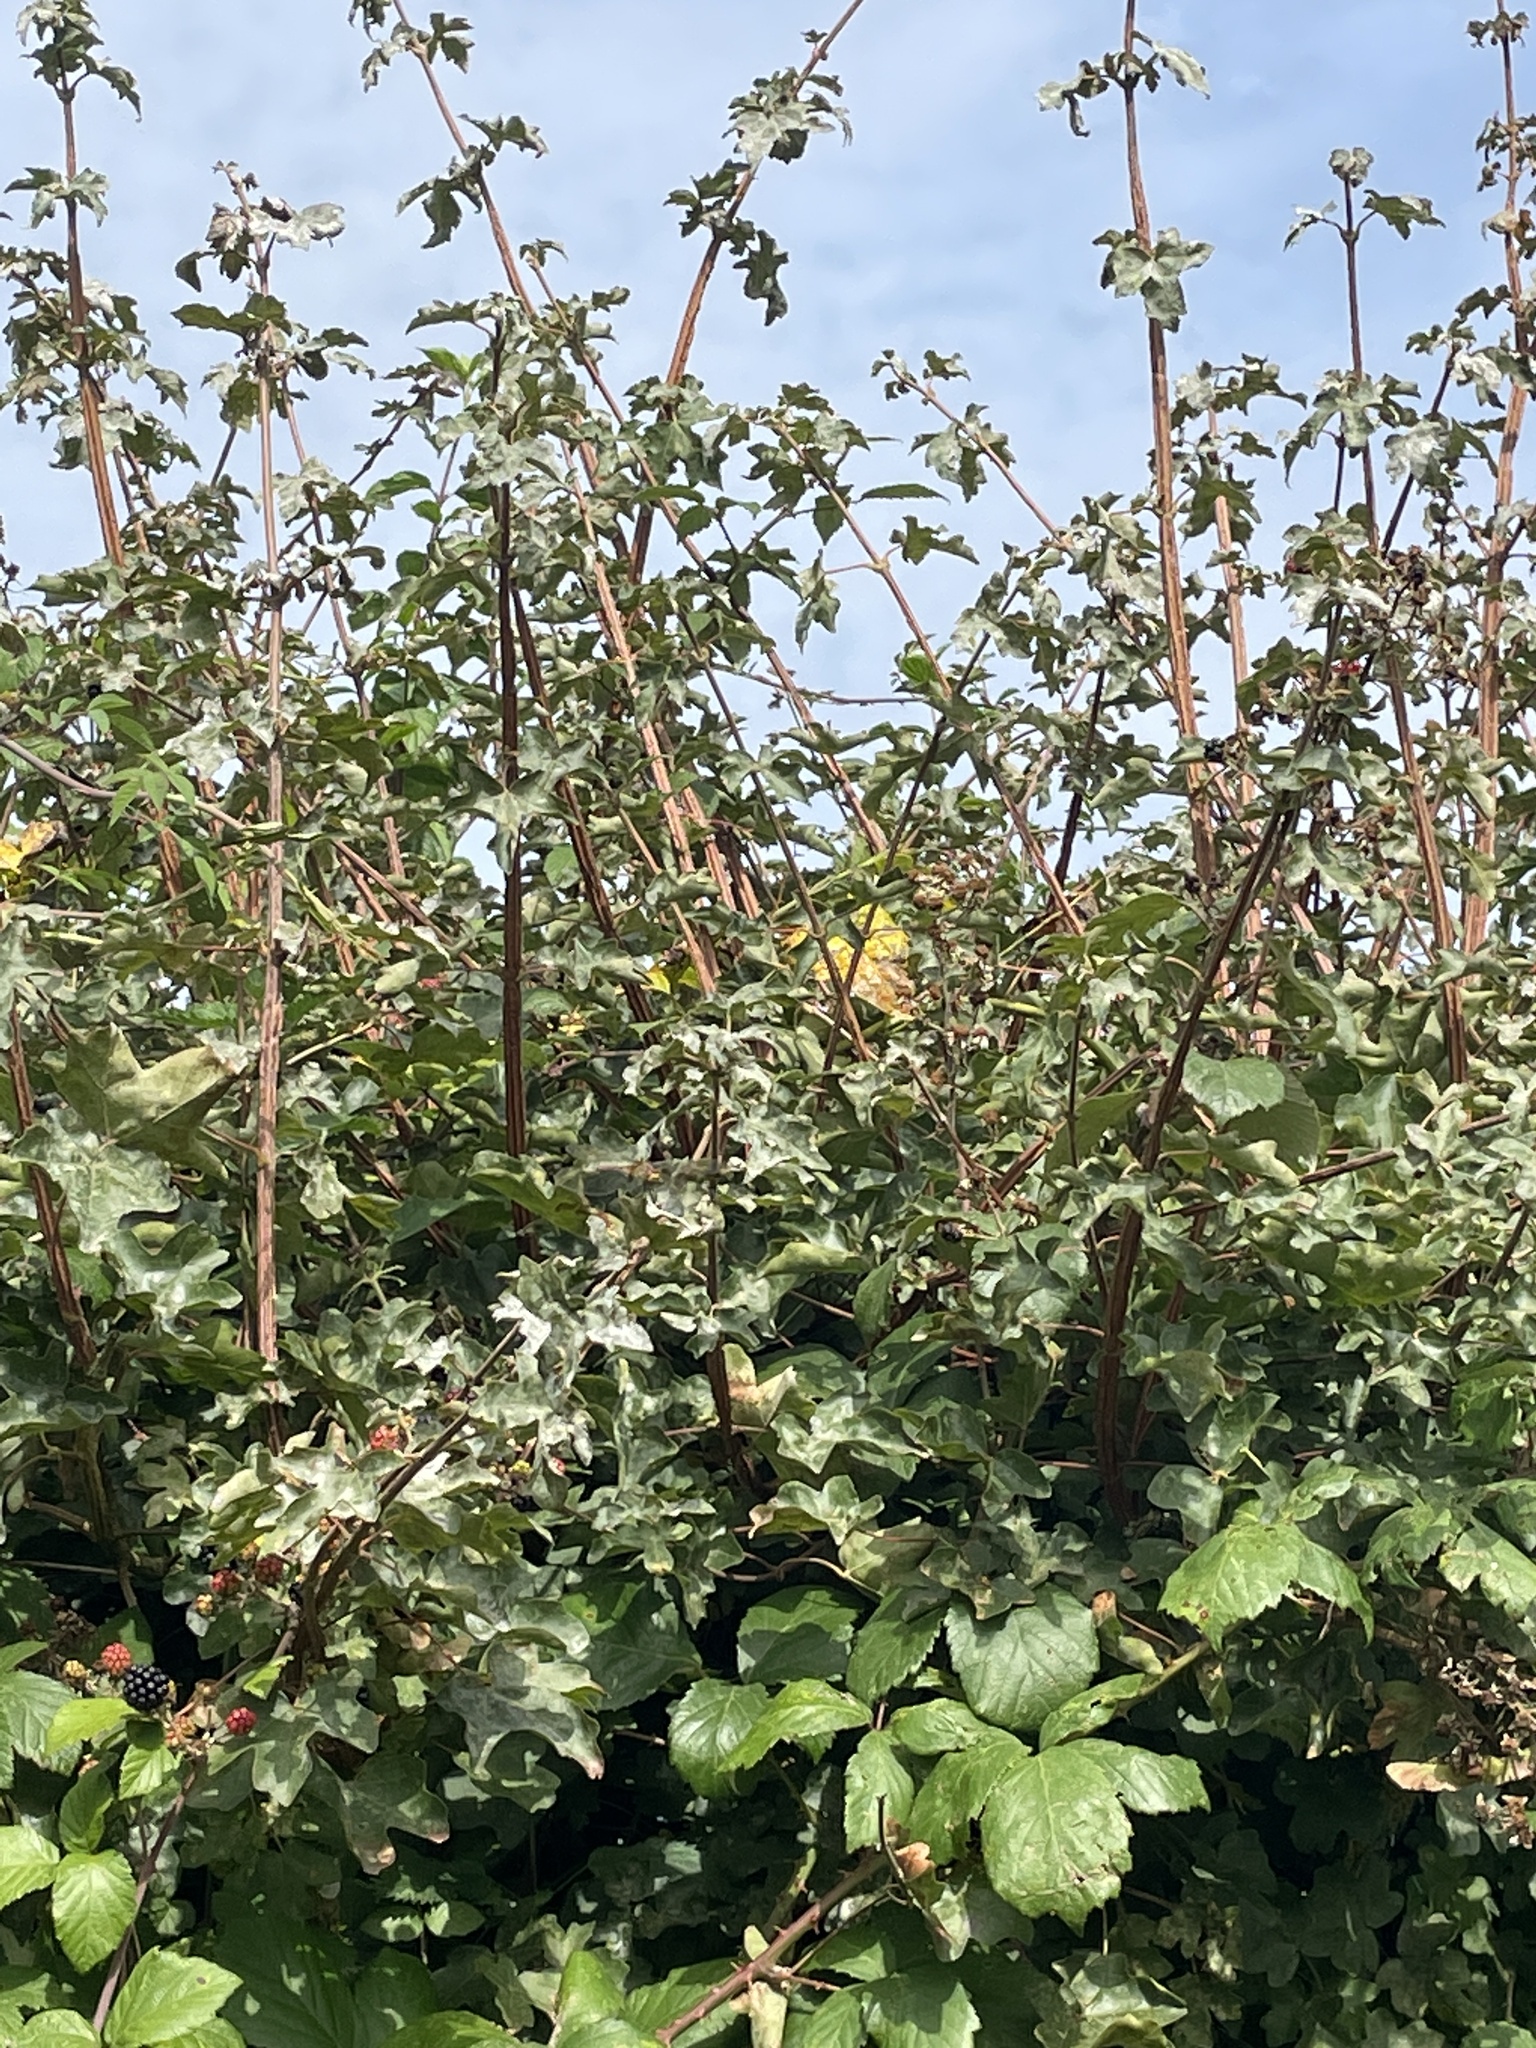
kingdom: Plantae
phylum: Tracheophyta
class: Magnoliopsida
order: Sapindales
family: Sapindaceae
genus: Acer
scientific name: Acer campestre
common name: Field maple
